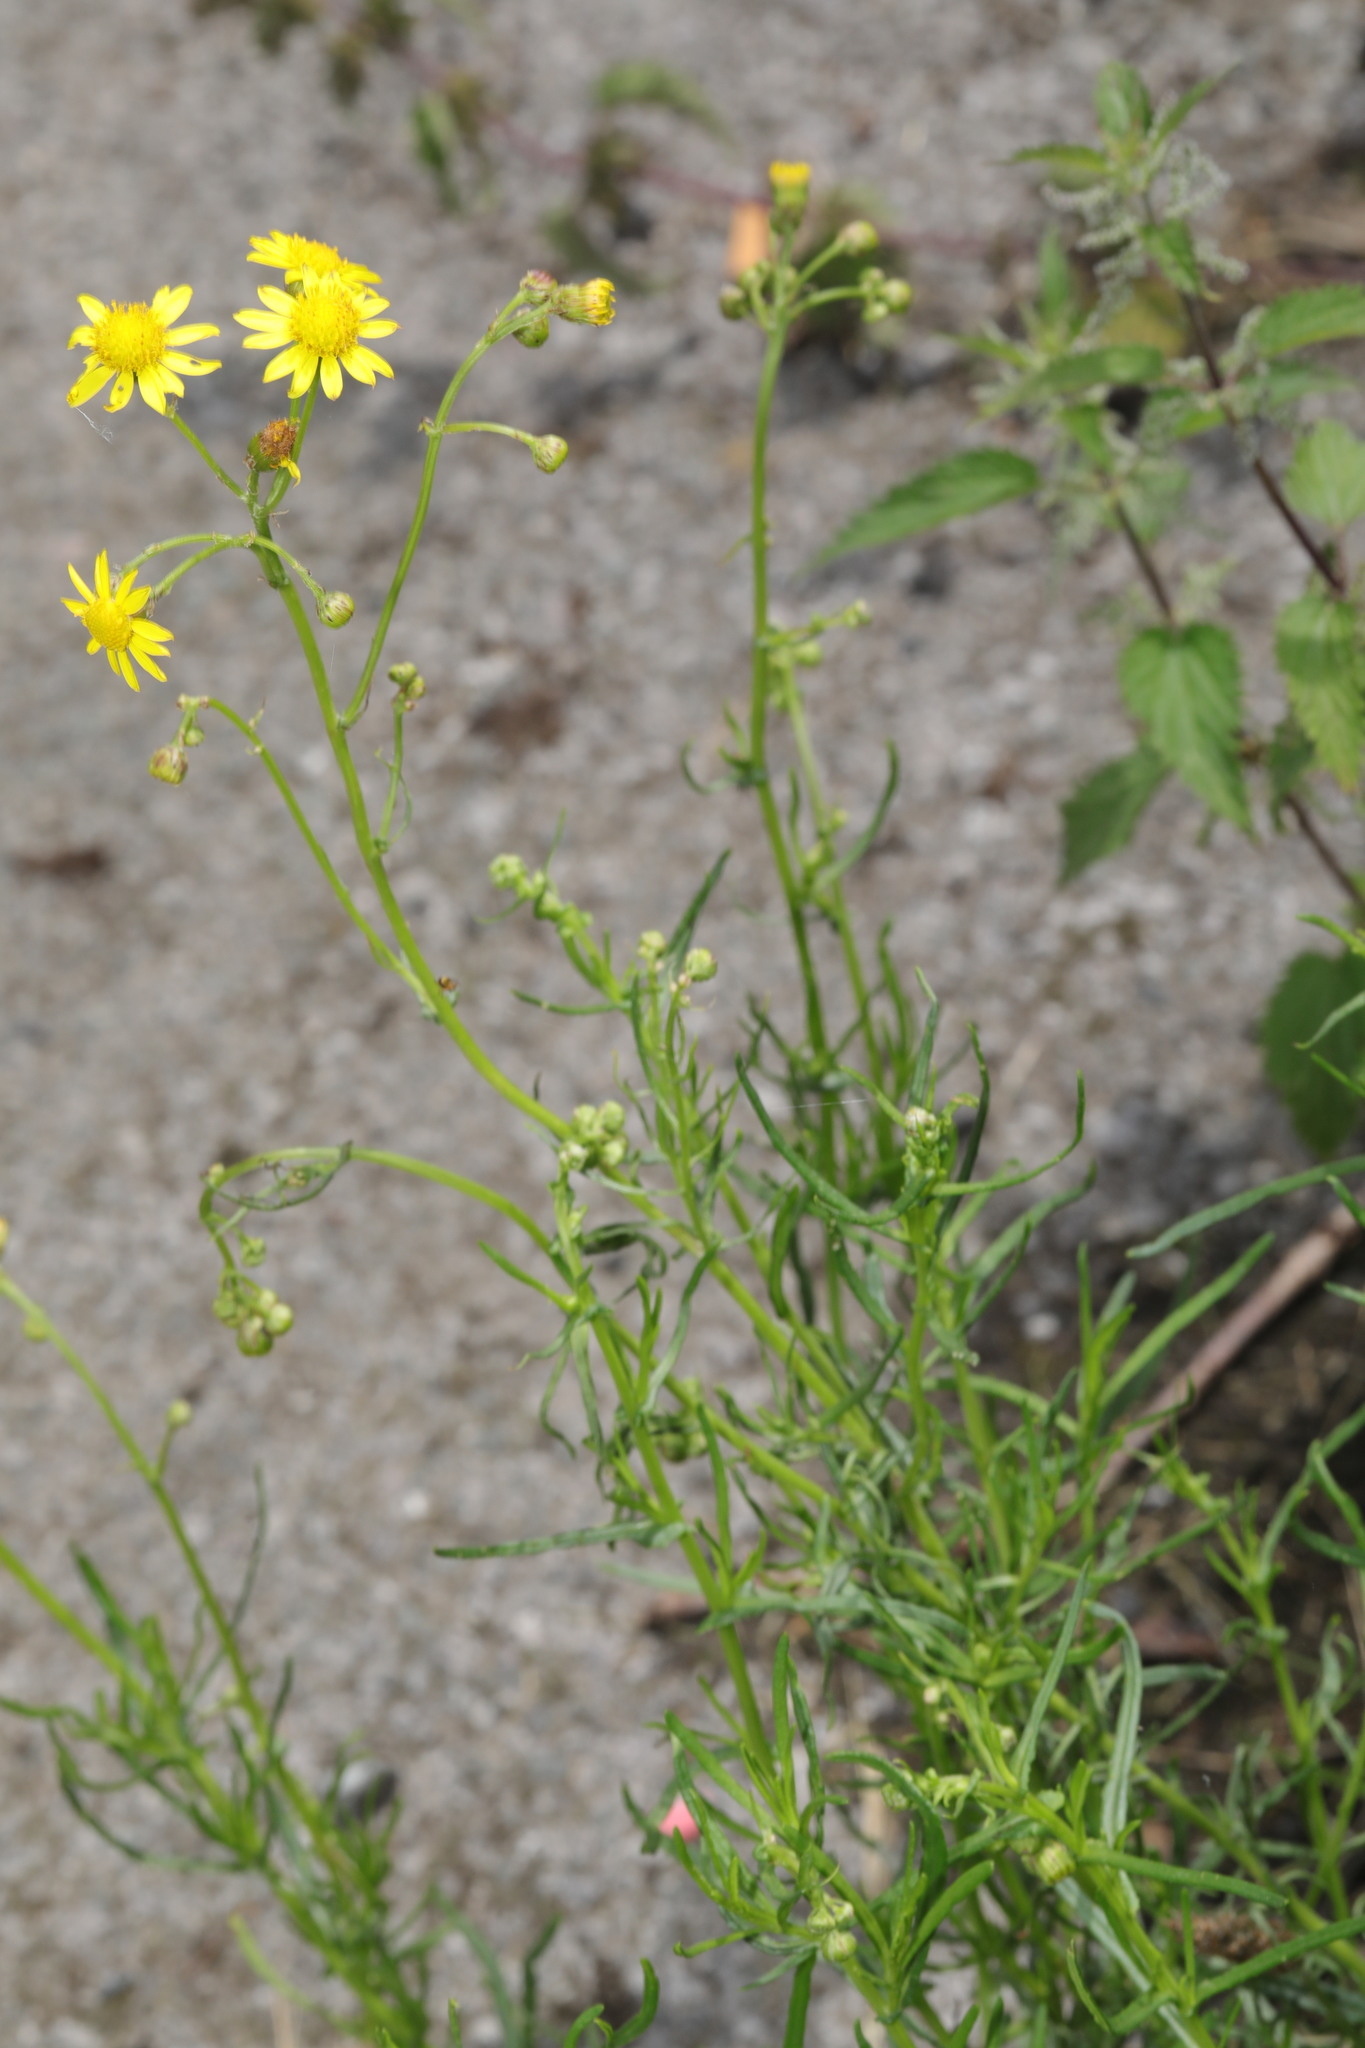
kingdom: Plantae
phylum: Tracheophyta
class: Magnoliopsida
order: Asterales
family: Asteraceae
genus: Senecio
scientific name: Senecio inaequidens
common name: Narrow-leaved ragwort
